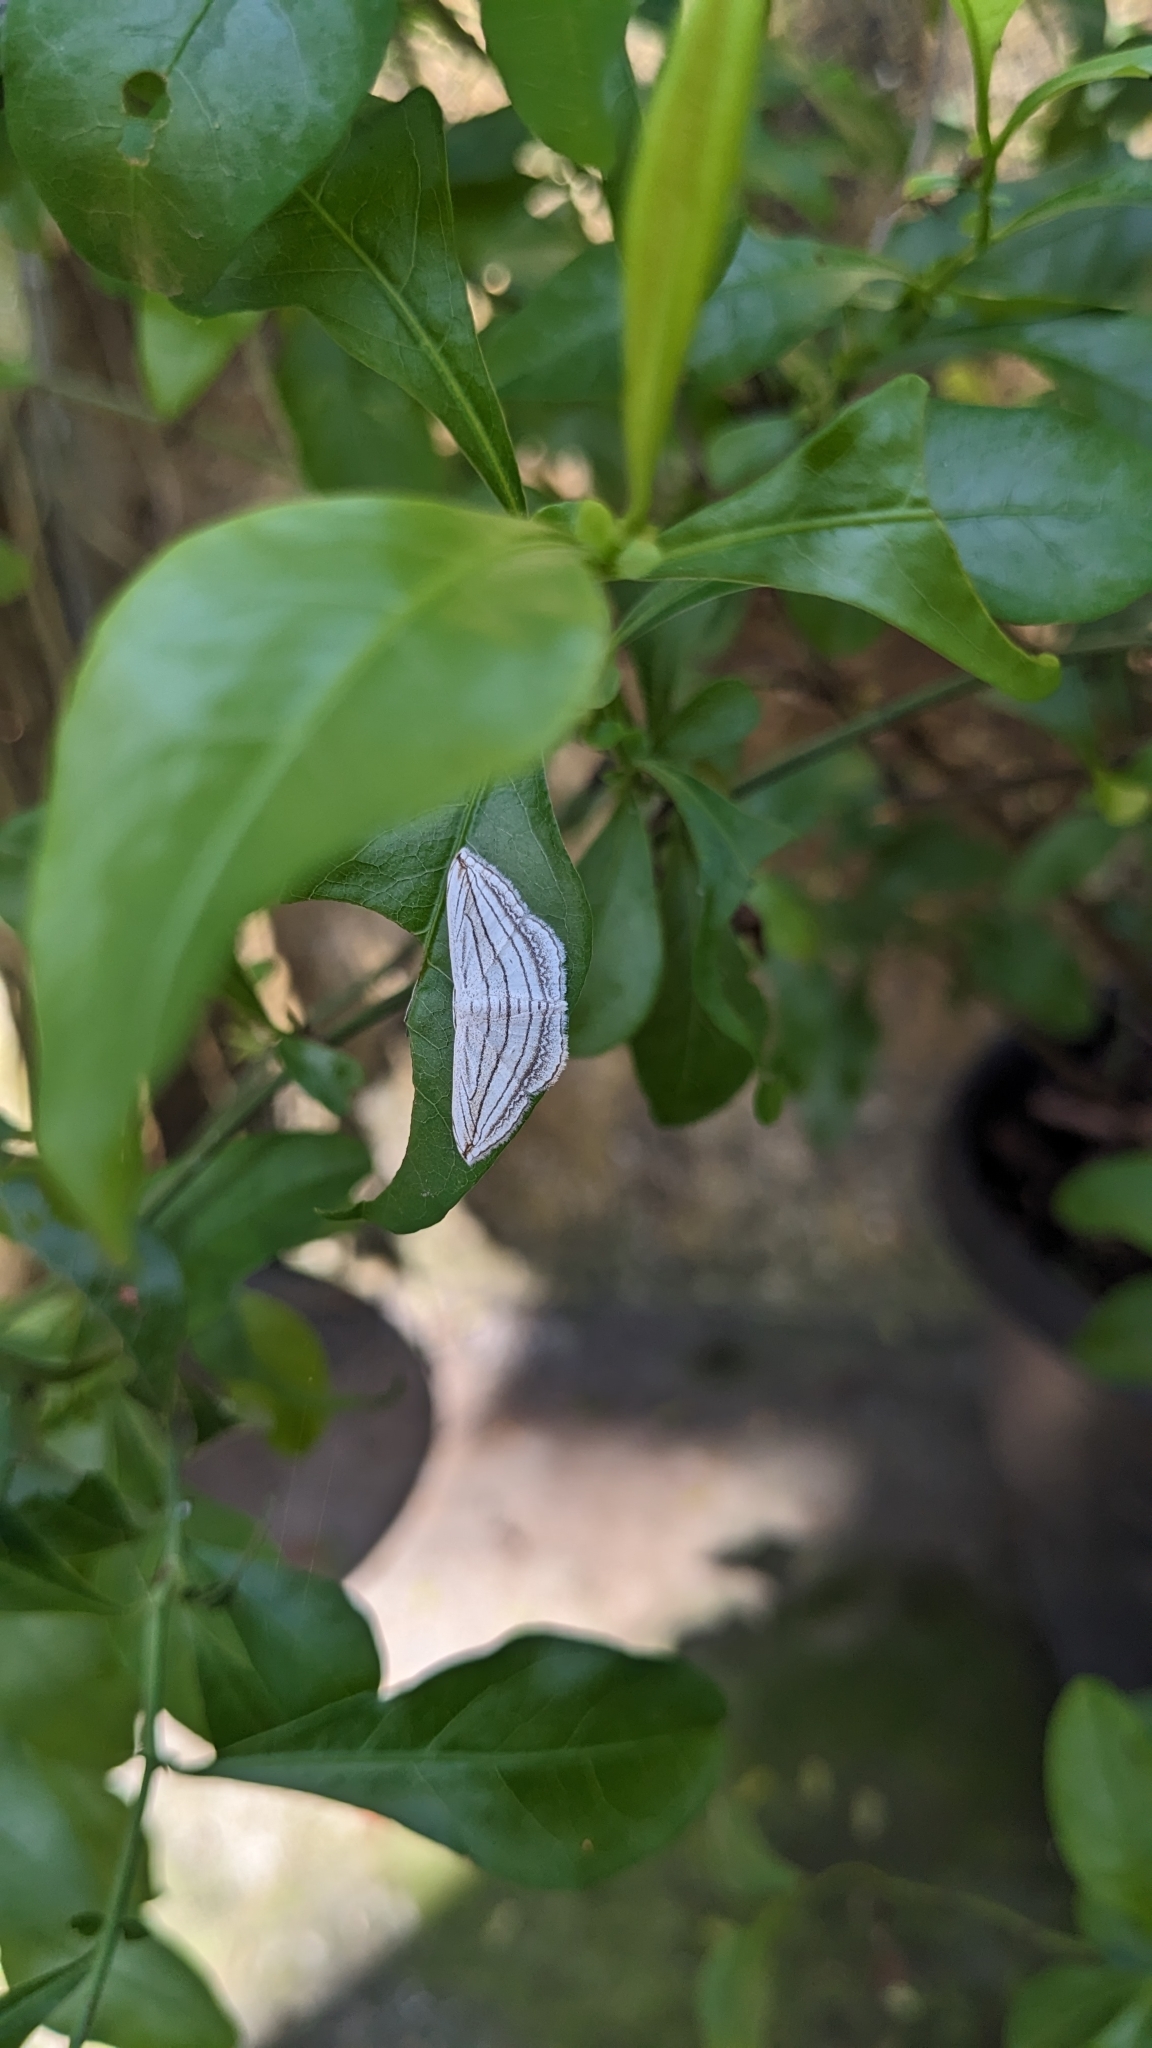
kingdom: Animalia
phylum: Arthropoda
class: Insecta
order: Lepidoptera
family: Geometridae
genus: Scopula
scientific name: Scopula opicata
